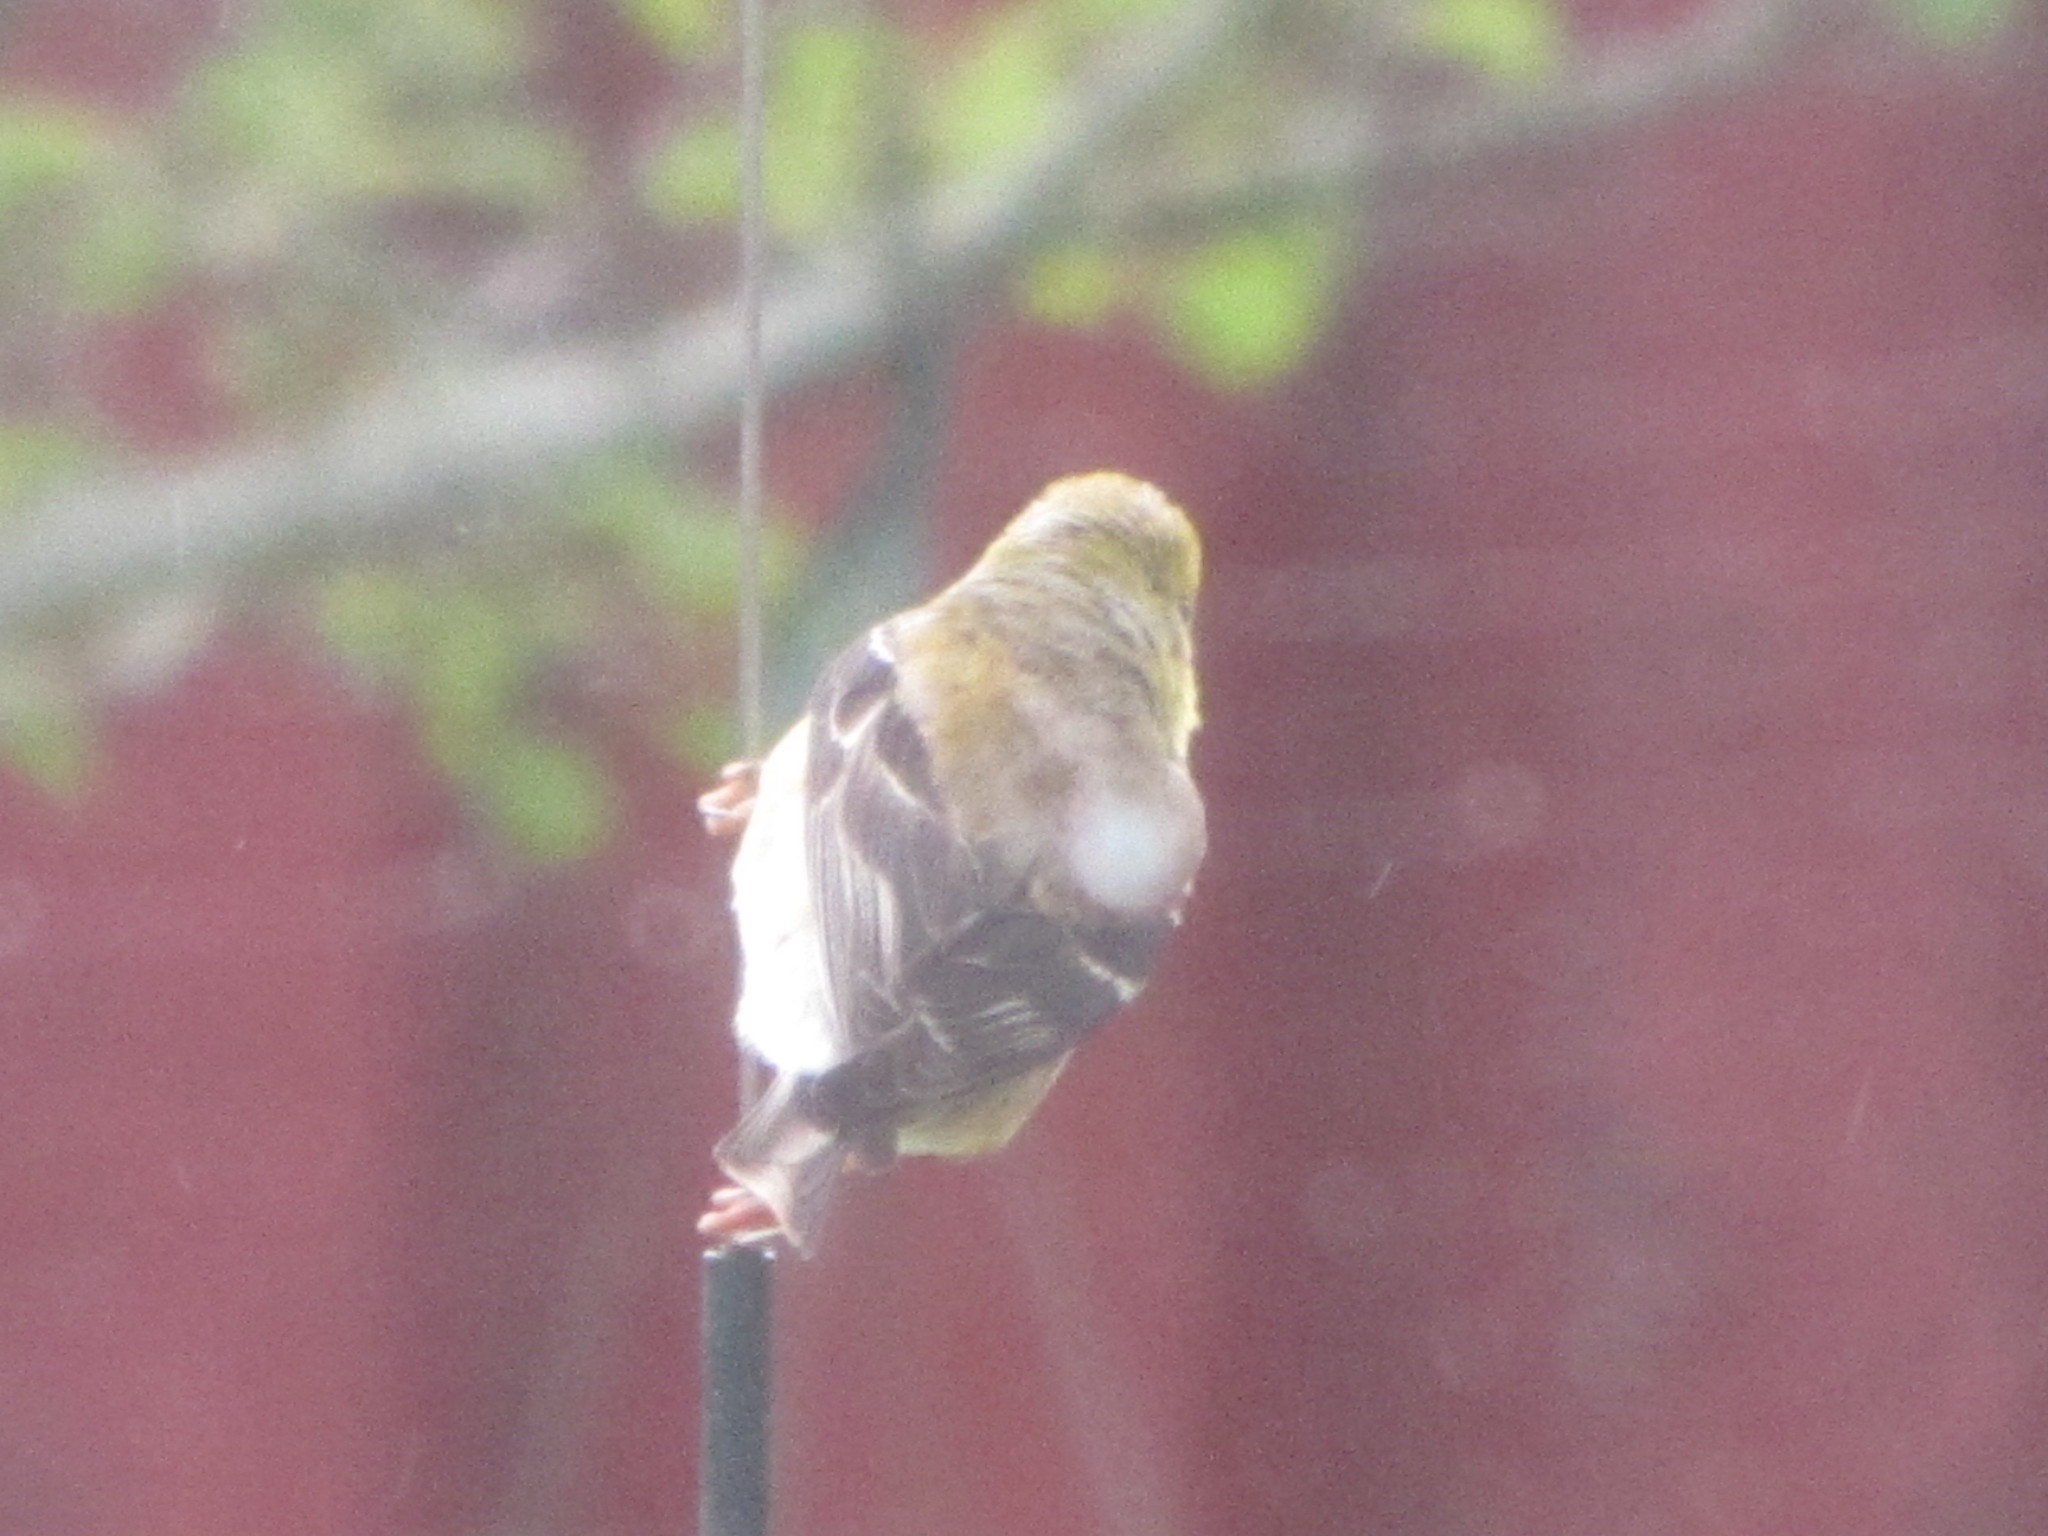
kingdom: Animalia
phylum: Chordata
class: Aves
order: Passeriformes
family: Fringillidae
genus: Spinus
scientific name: Spinus tristis
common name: American goldfinch
